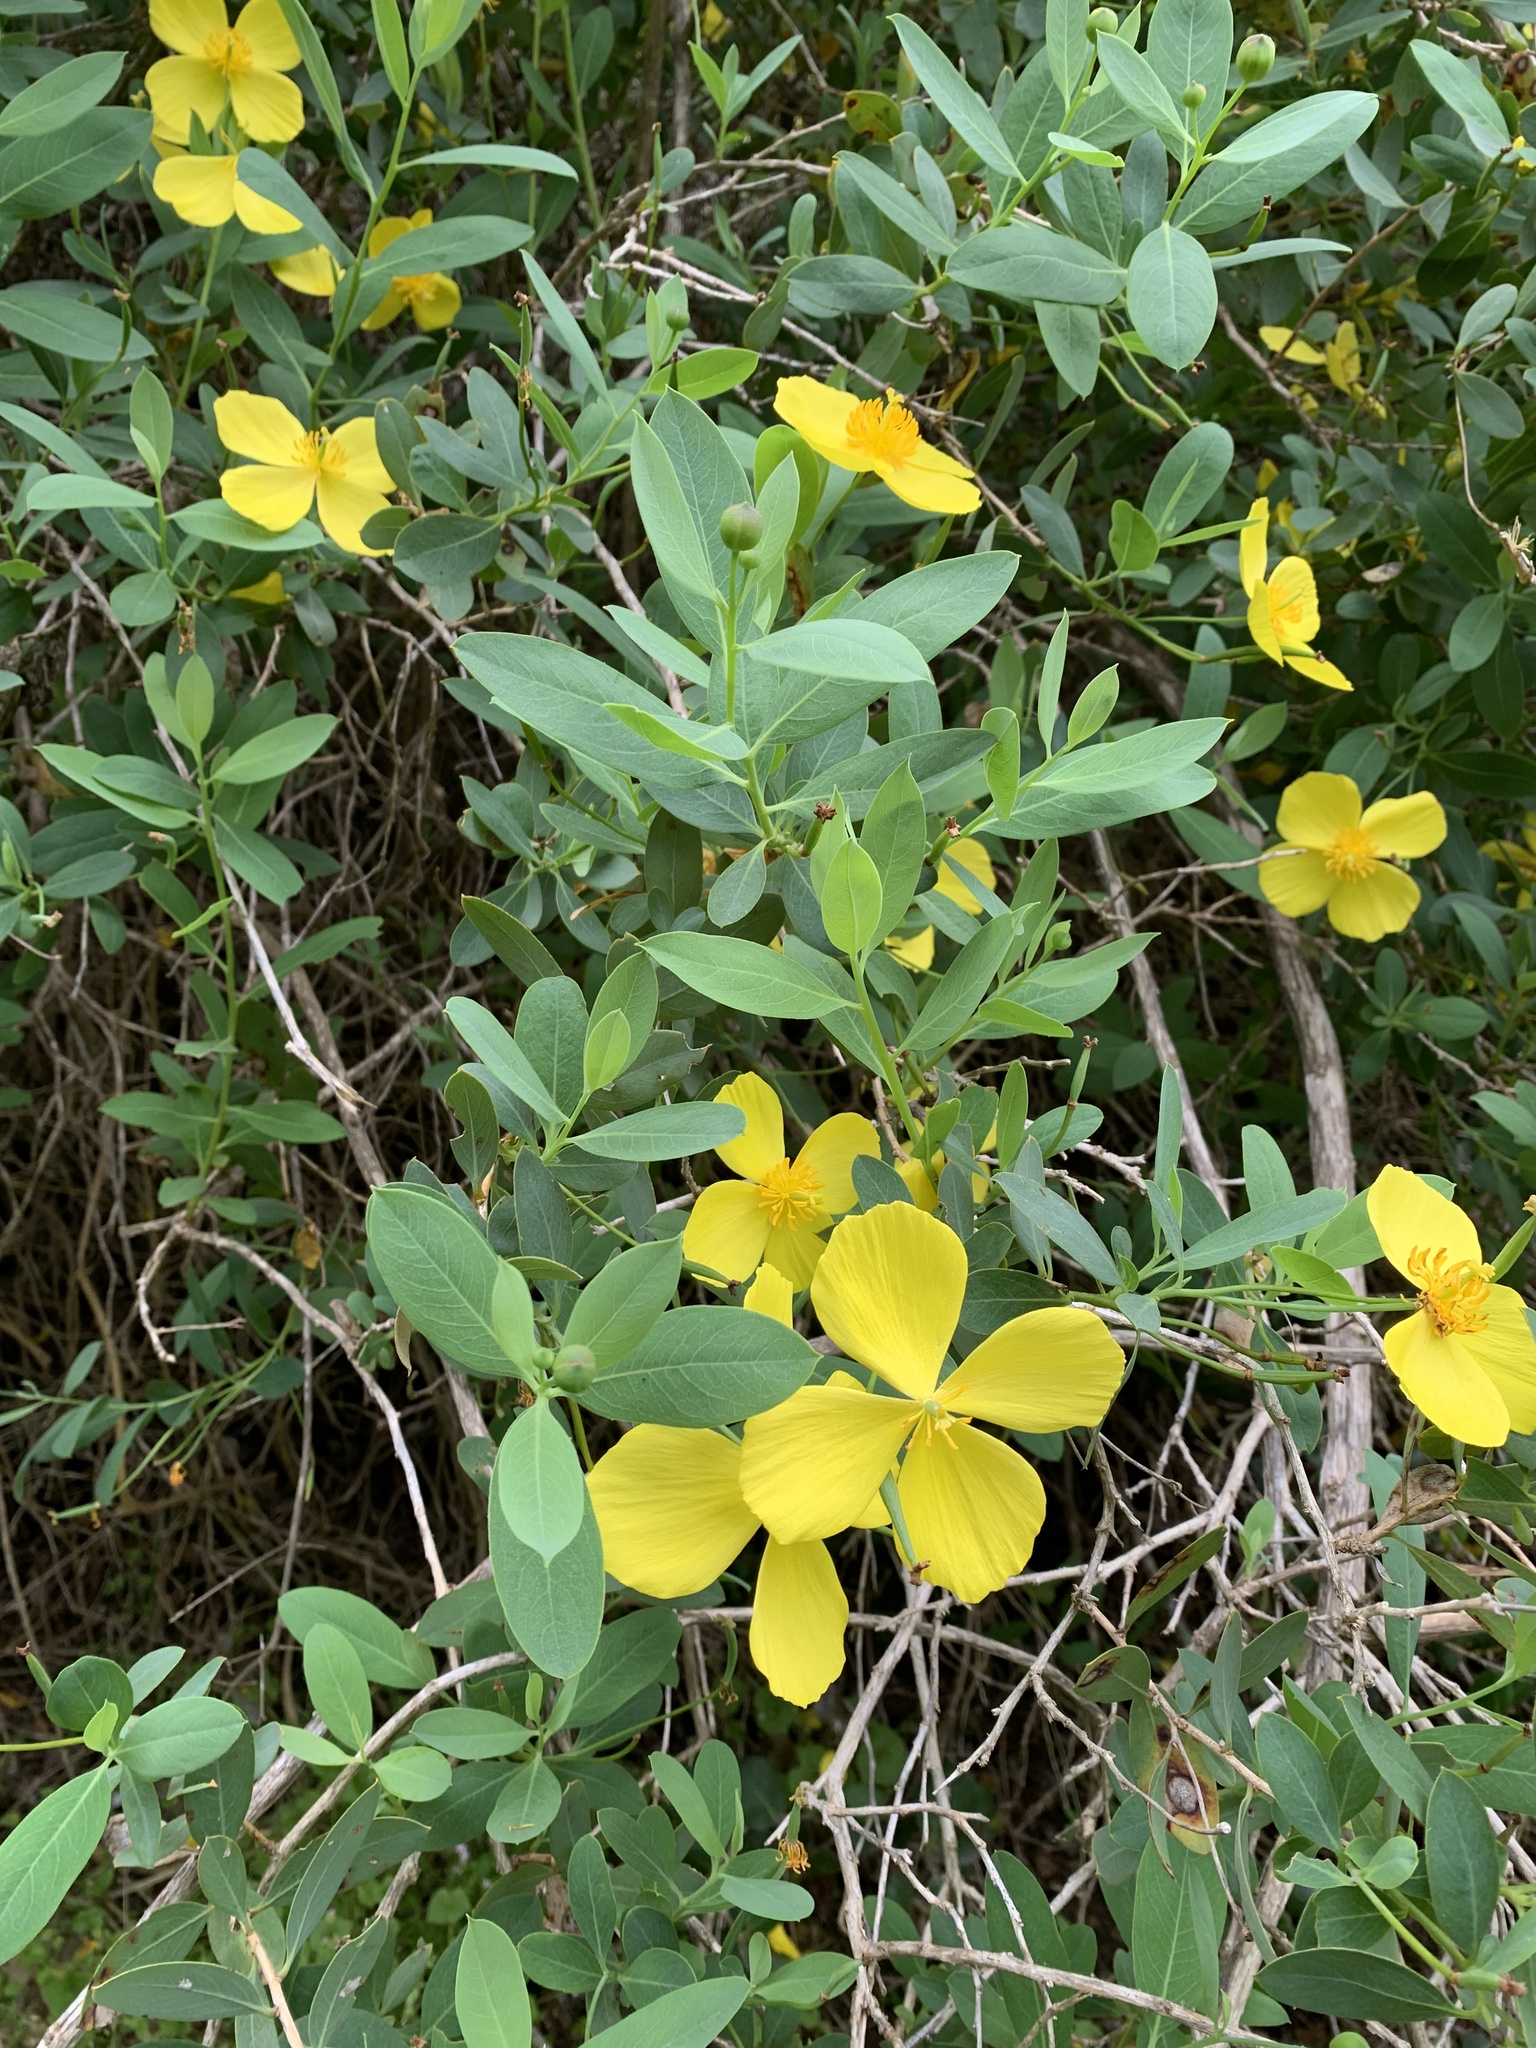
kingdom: Plantae
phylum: Tracheophyta
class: Magnoliopsida
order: Ranunculales
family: Papaveraceae
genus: Dendromecon
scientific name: Dendromecon harfordii
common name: Island tree-poppy
